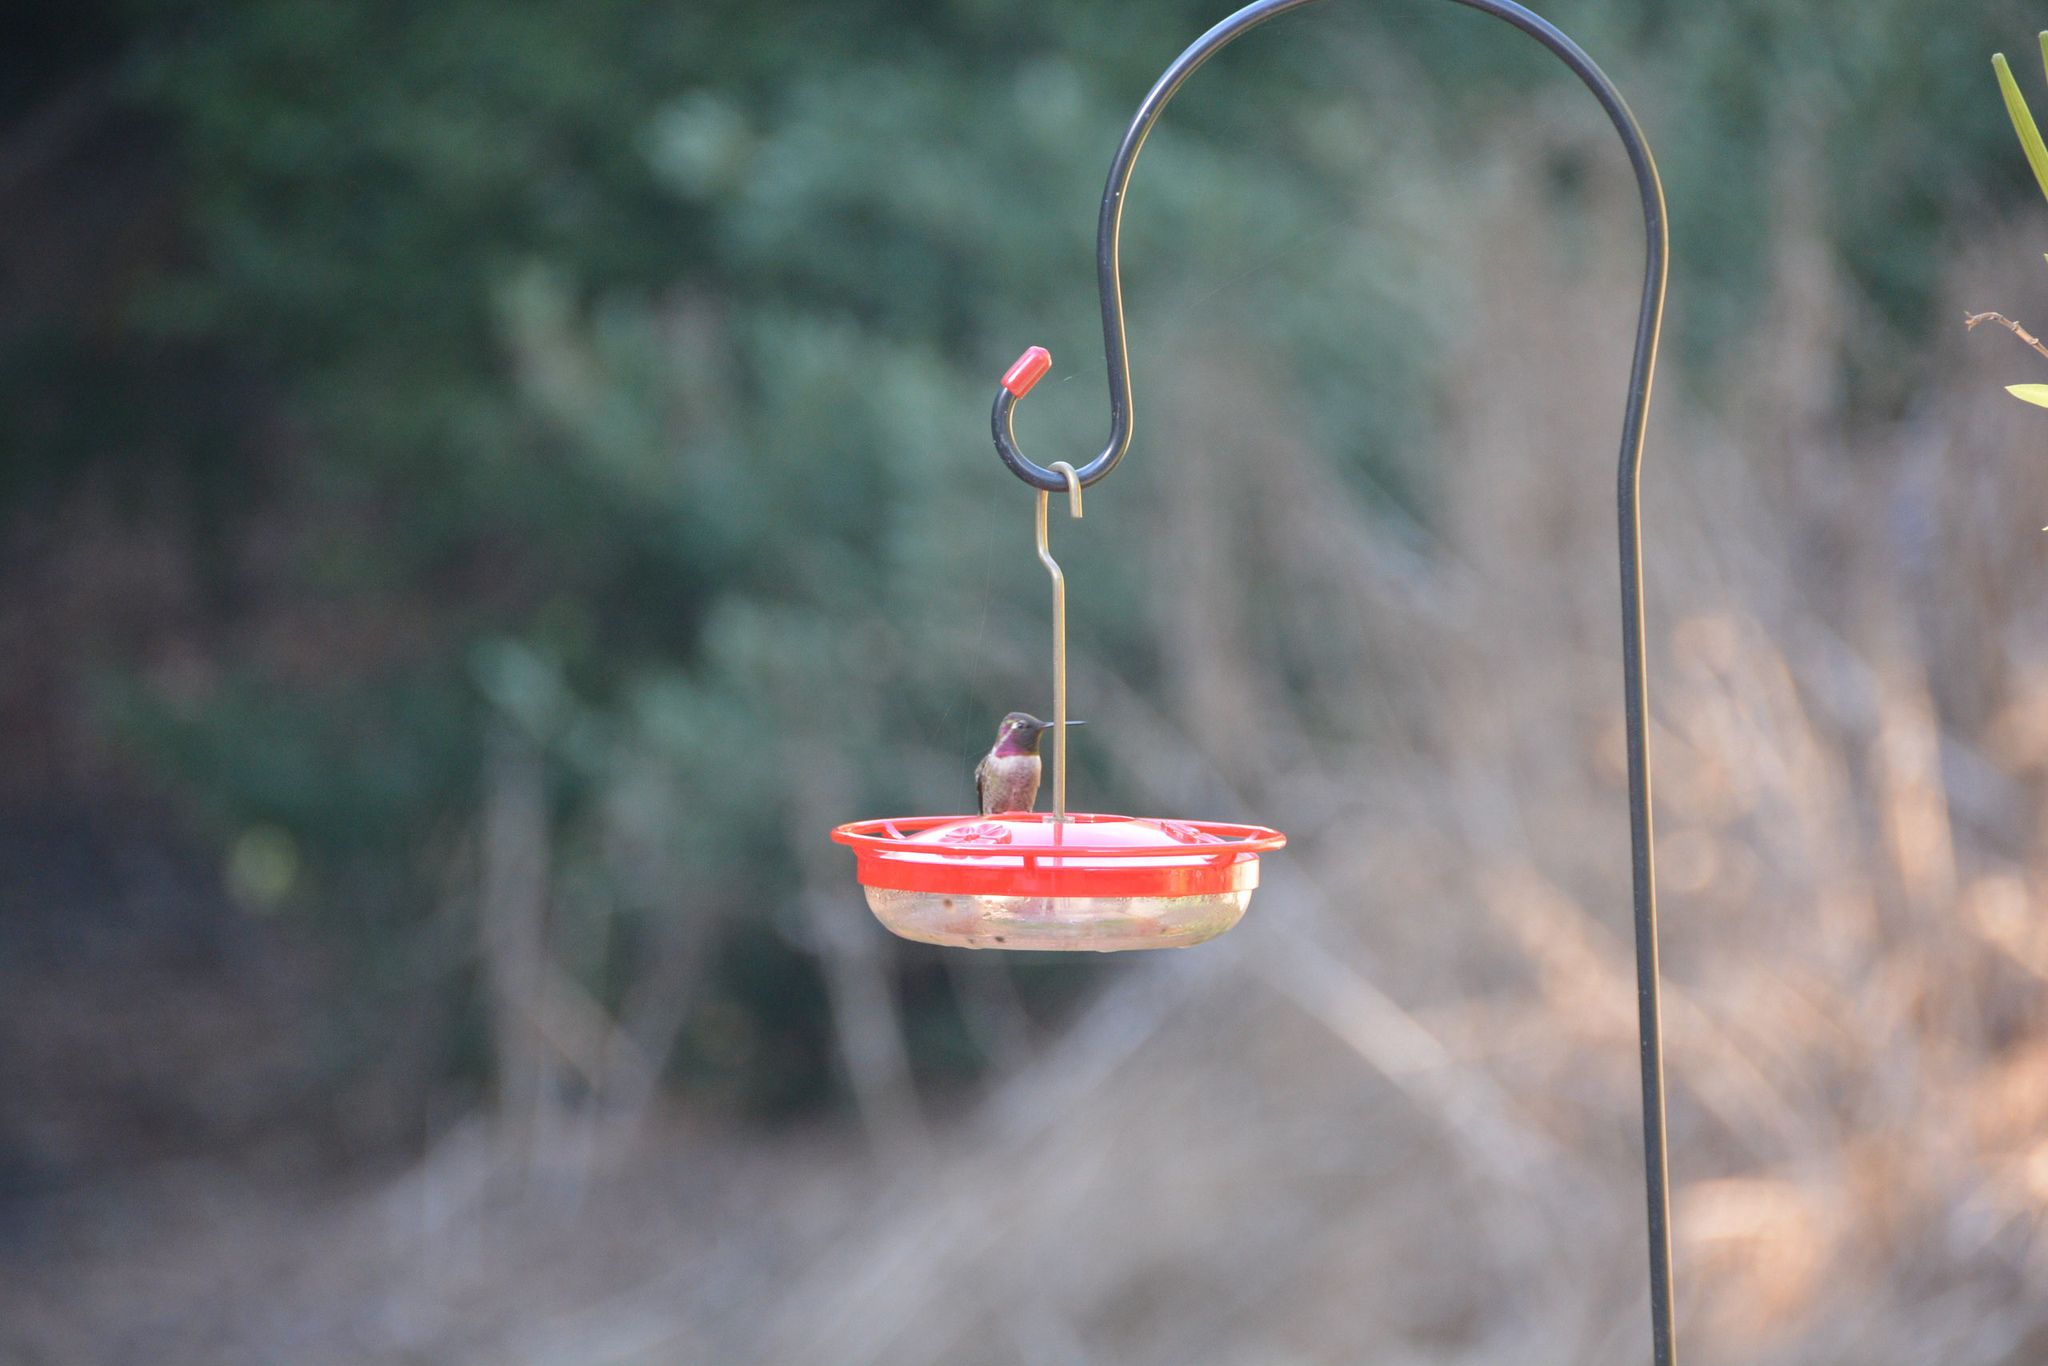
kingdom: Animalia
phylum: Chordata
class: Aves
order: Apodiformes
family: Trochilidae
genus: Calypte
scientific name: Calypte anna
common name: Anna's hummingbird
